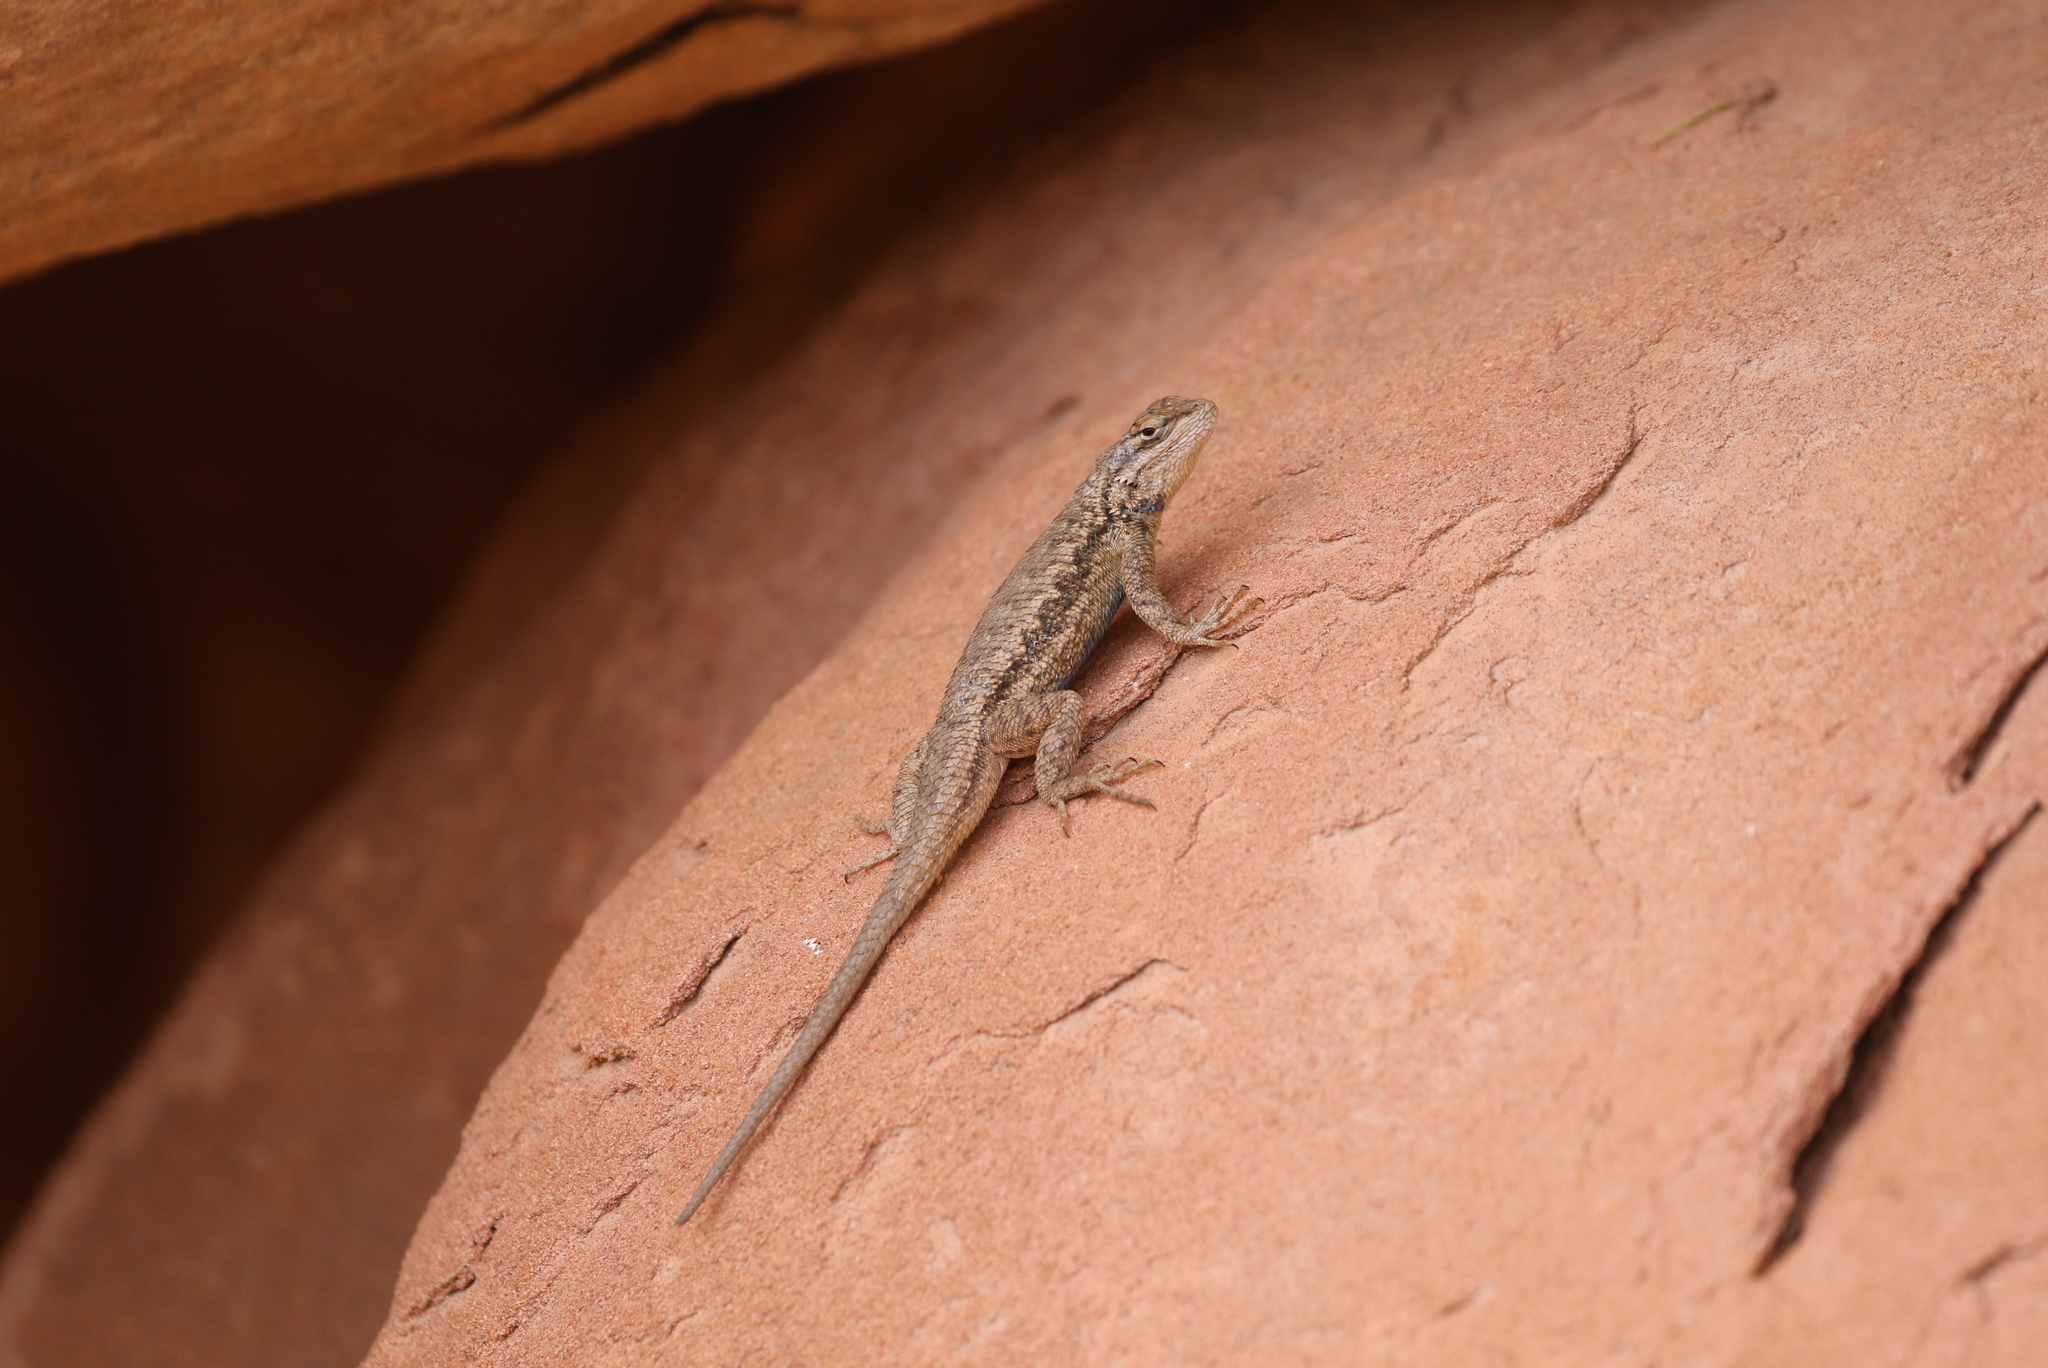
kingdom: Animalia
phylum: Chordata
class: Squamata
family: Phrynosomatidae
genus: Sceloporus
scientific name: Sceloporus tristichus
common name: Plateau fence lizard
